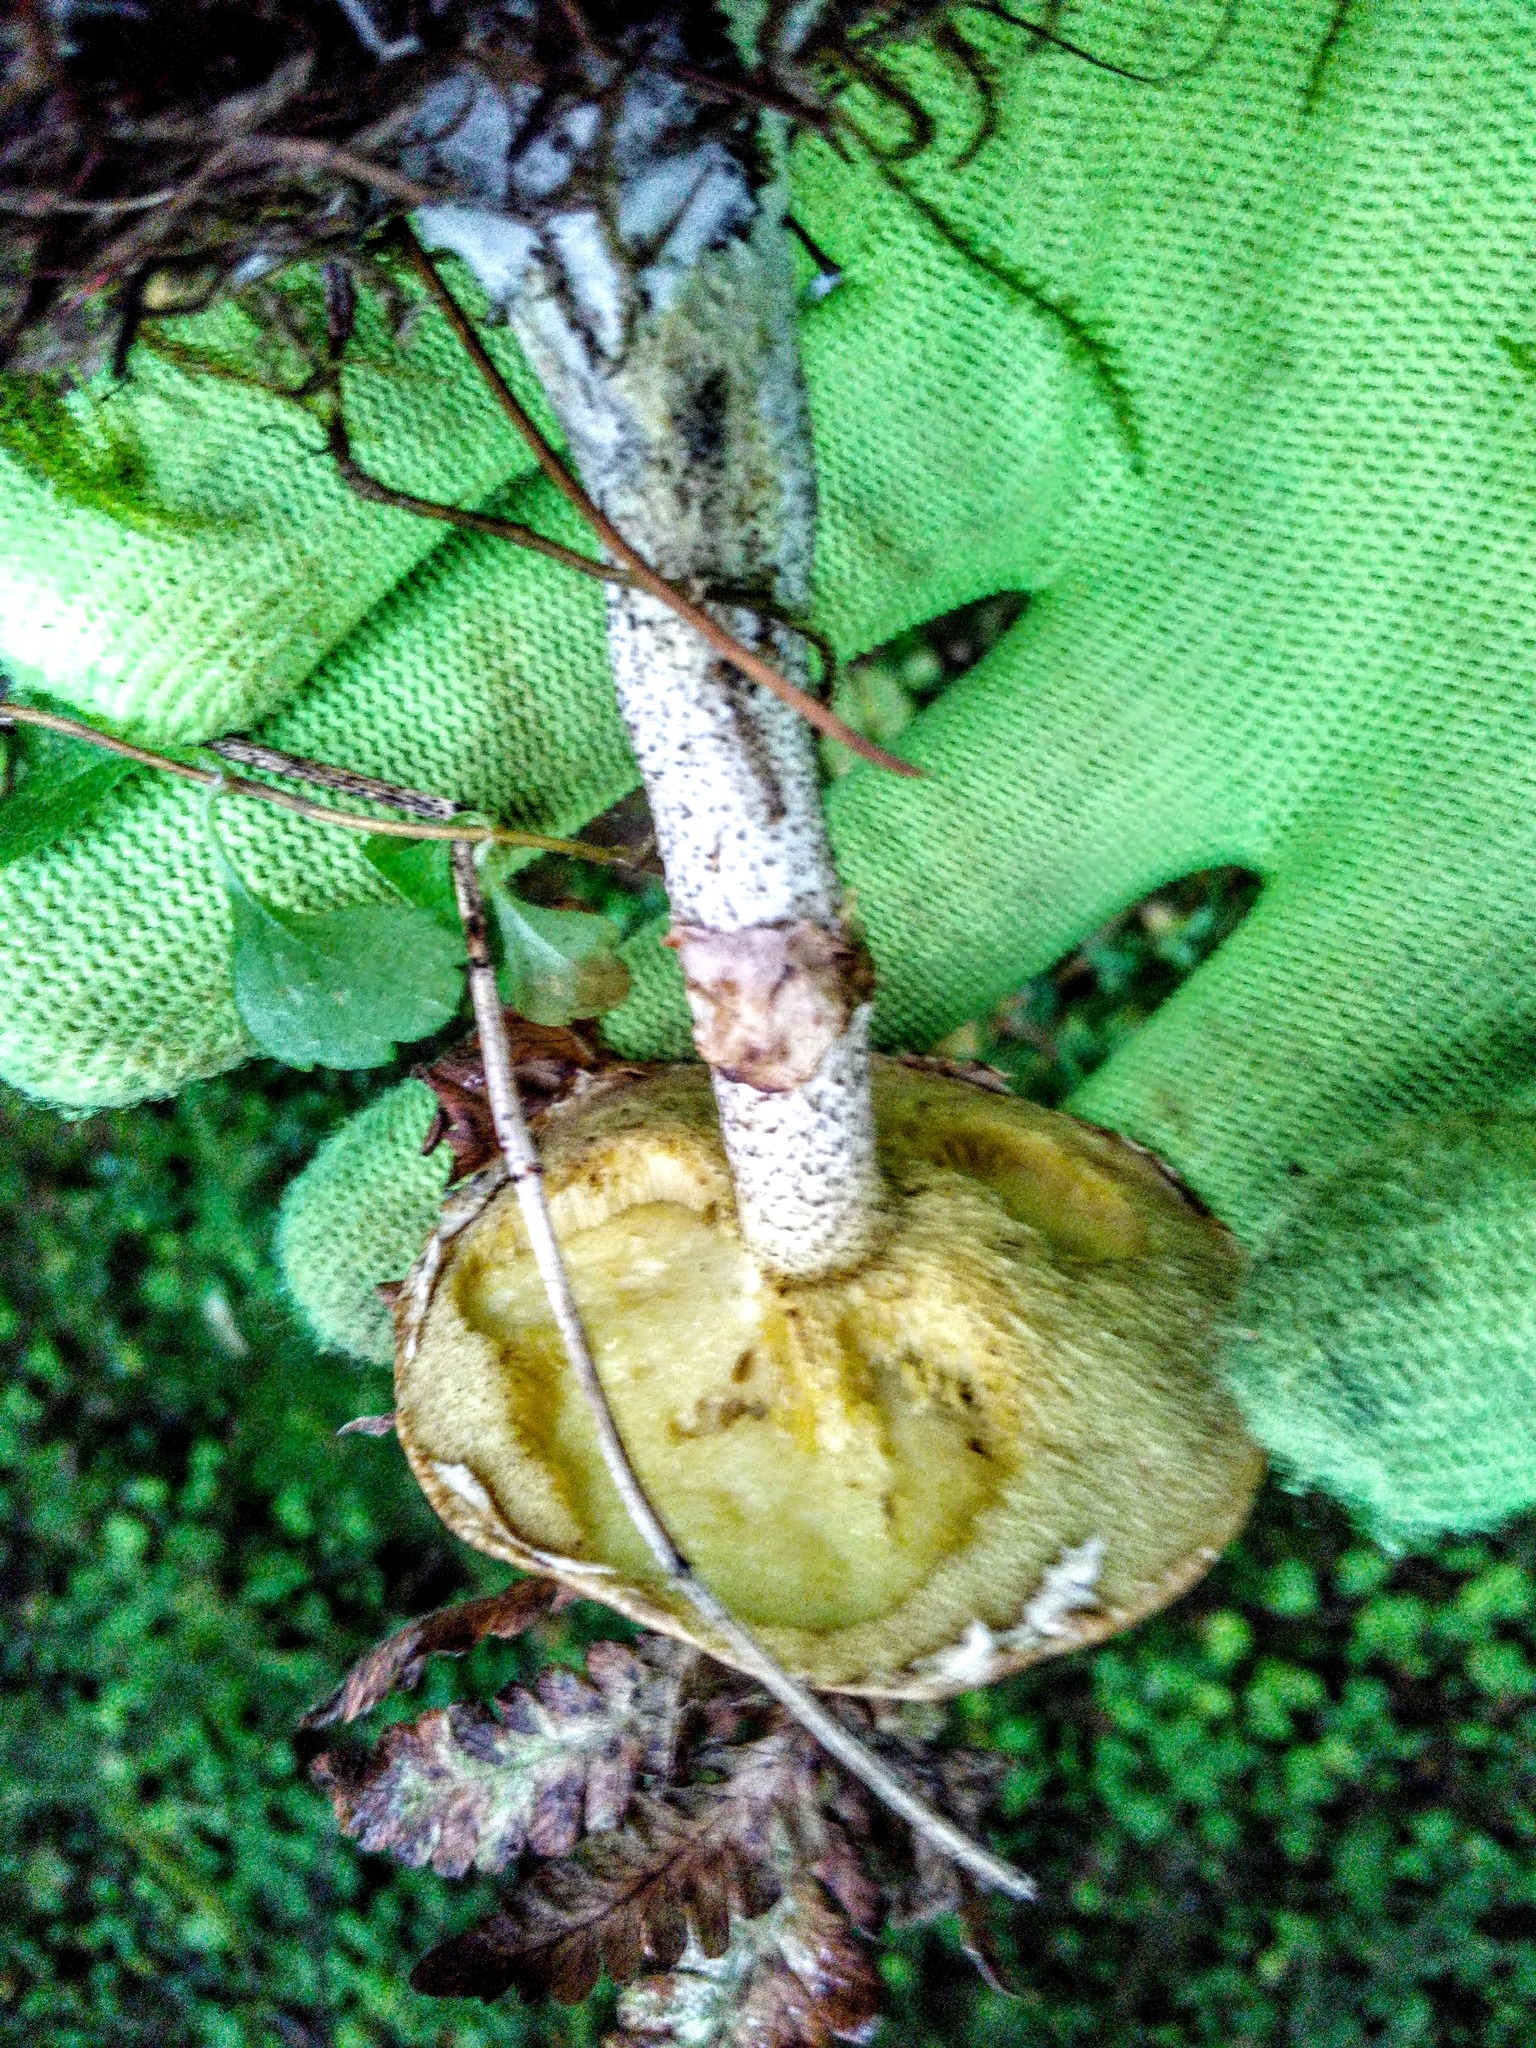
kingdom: Fungi
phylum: Basidiomycota
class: Agaricomycetes
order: Boletales
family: Suillaceae
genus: Suillus
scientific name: Suillus acidus
